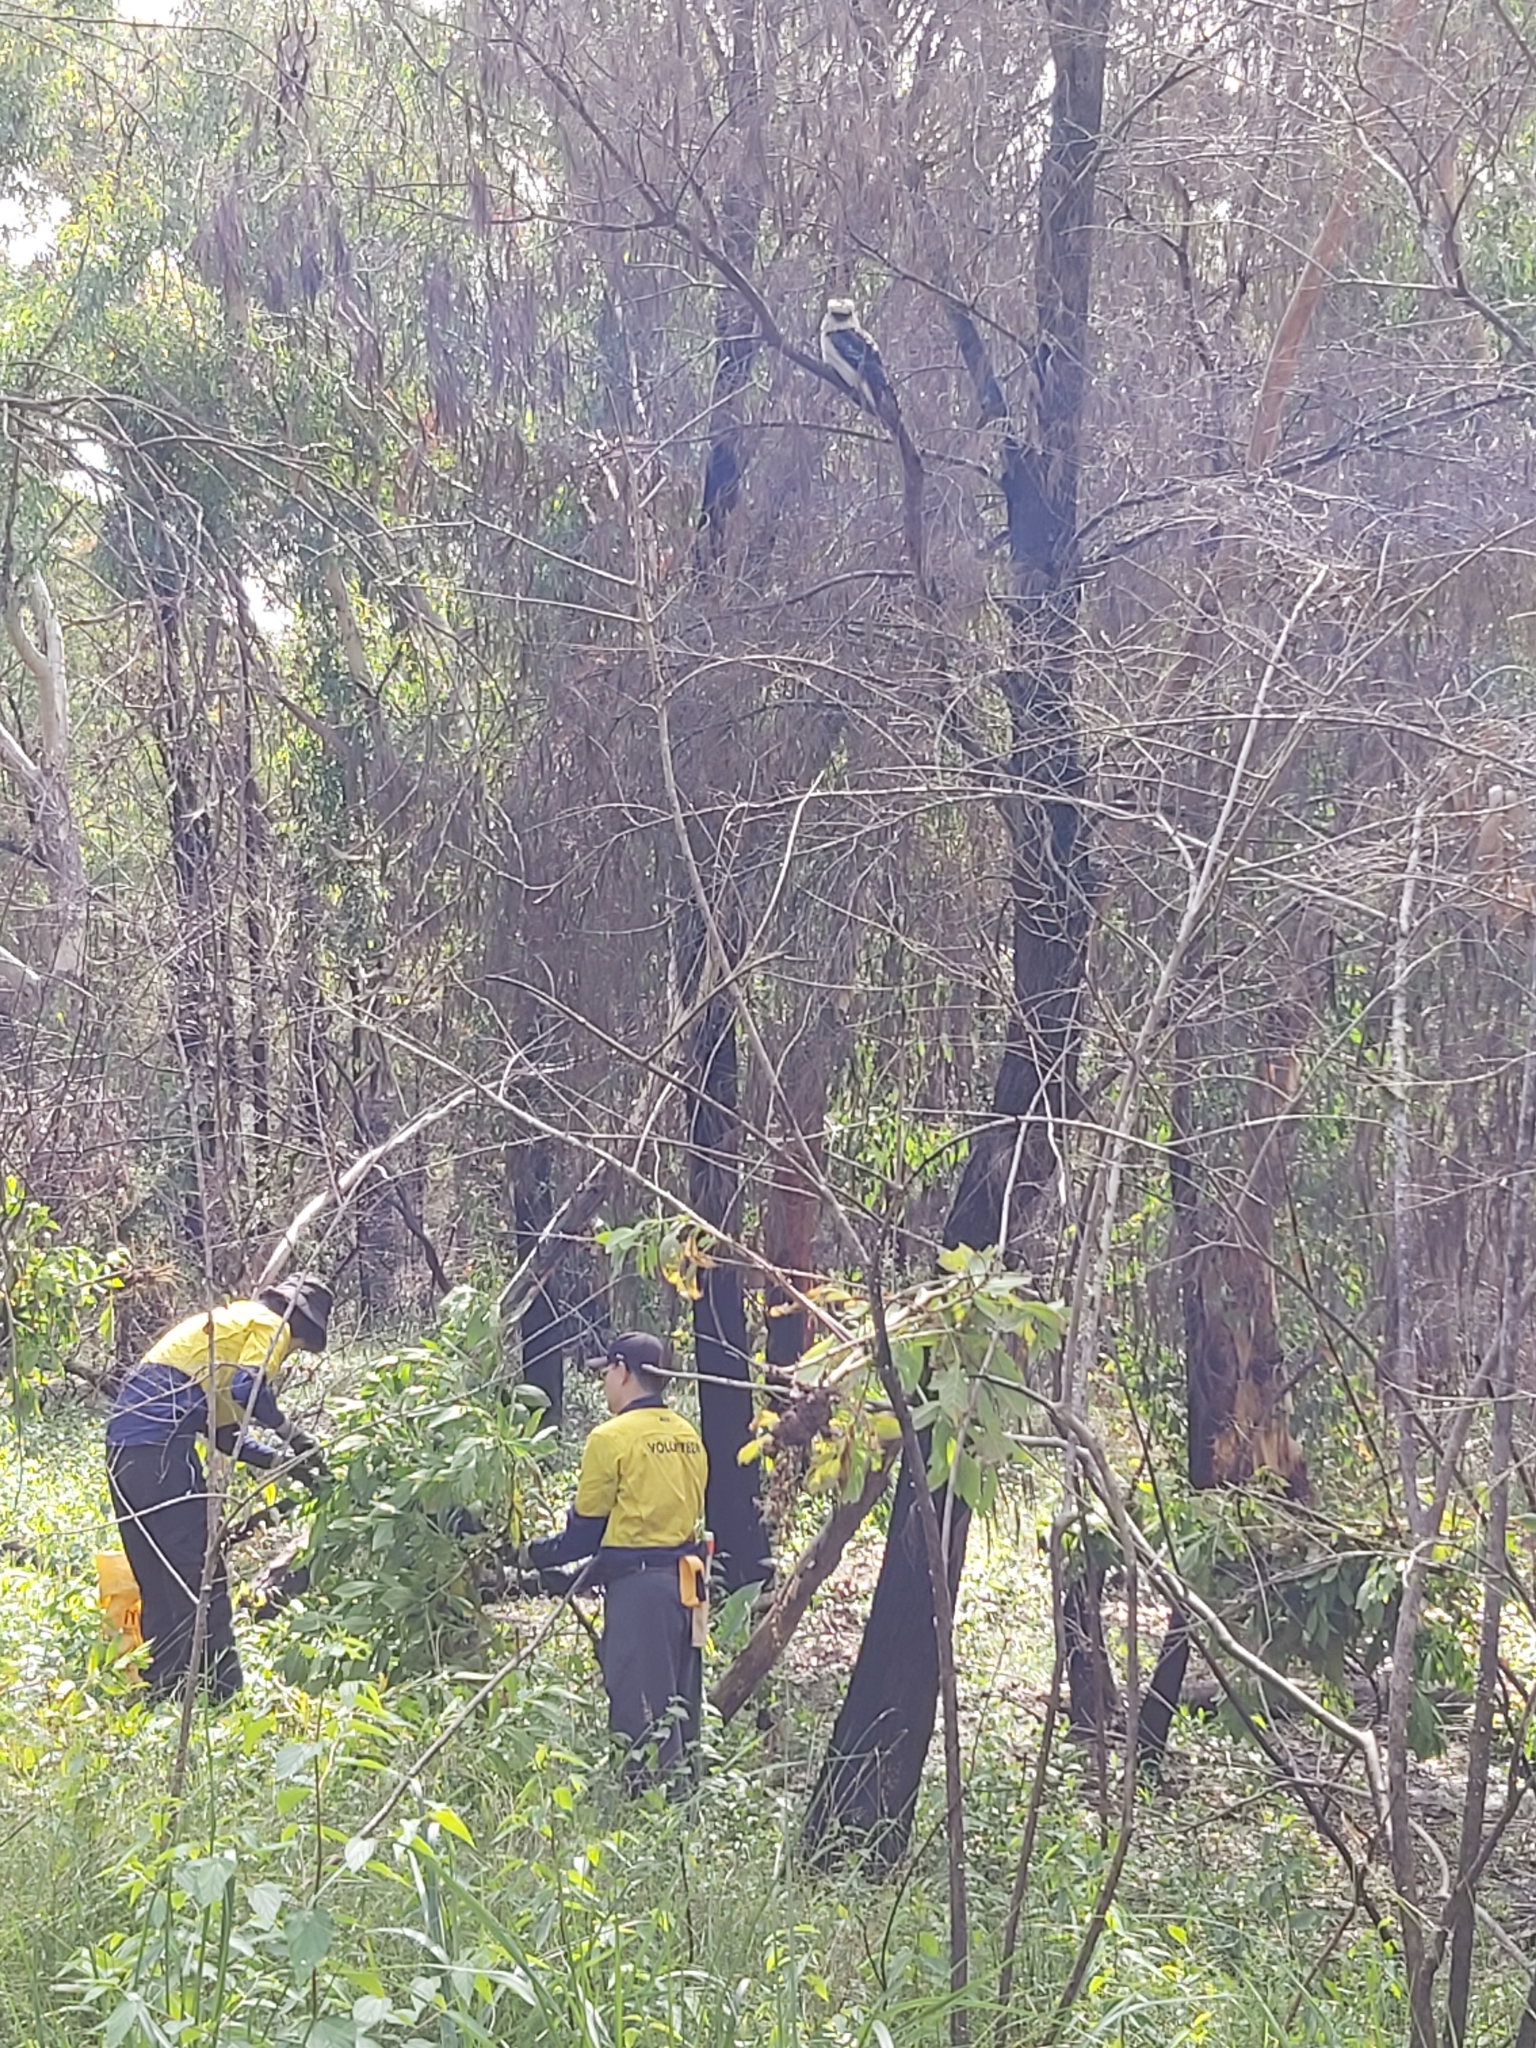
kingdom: Animalia
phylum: Chordata
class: Aves
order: Coraciiformes
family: Alcedinidae
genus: Dacelo
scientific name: Dacelo novaeguineae
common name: Laughing kookaburra
